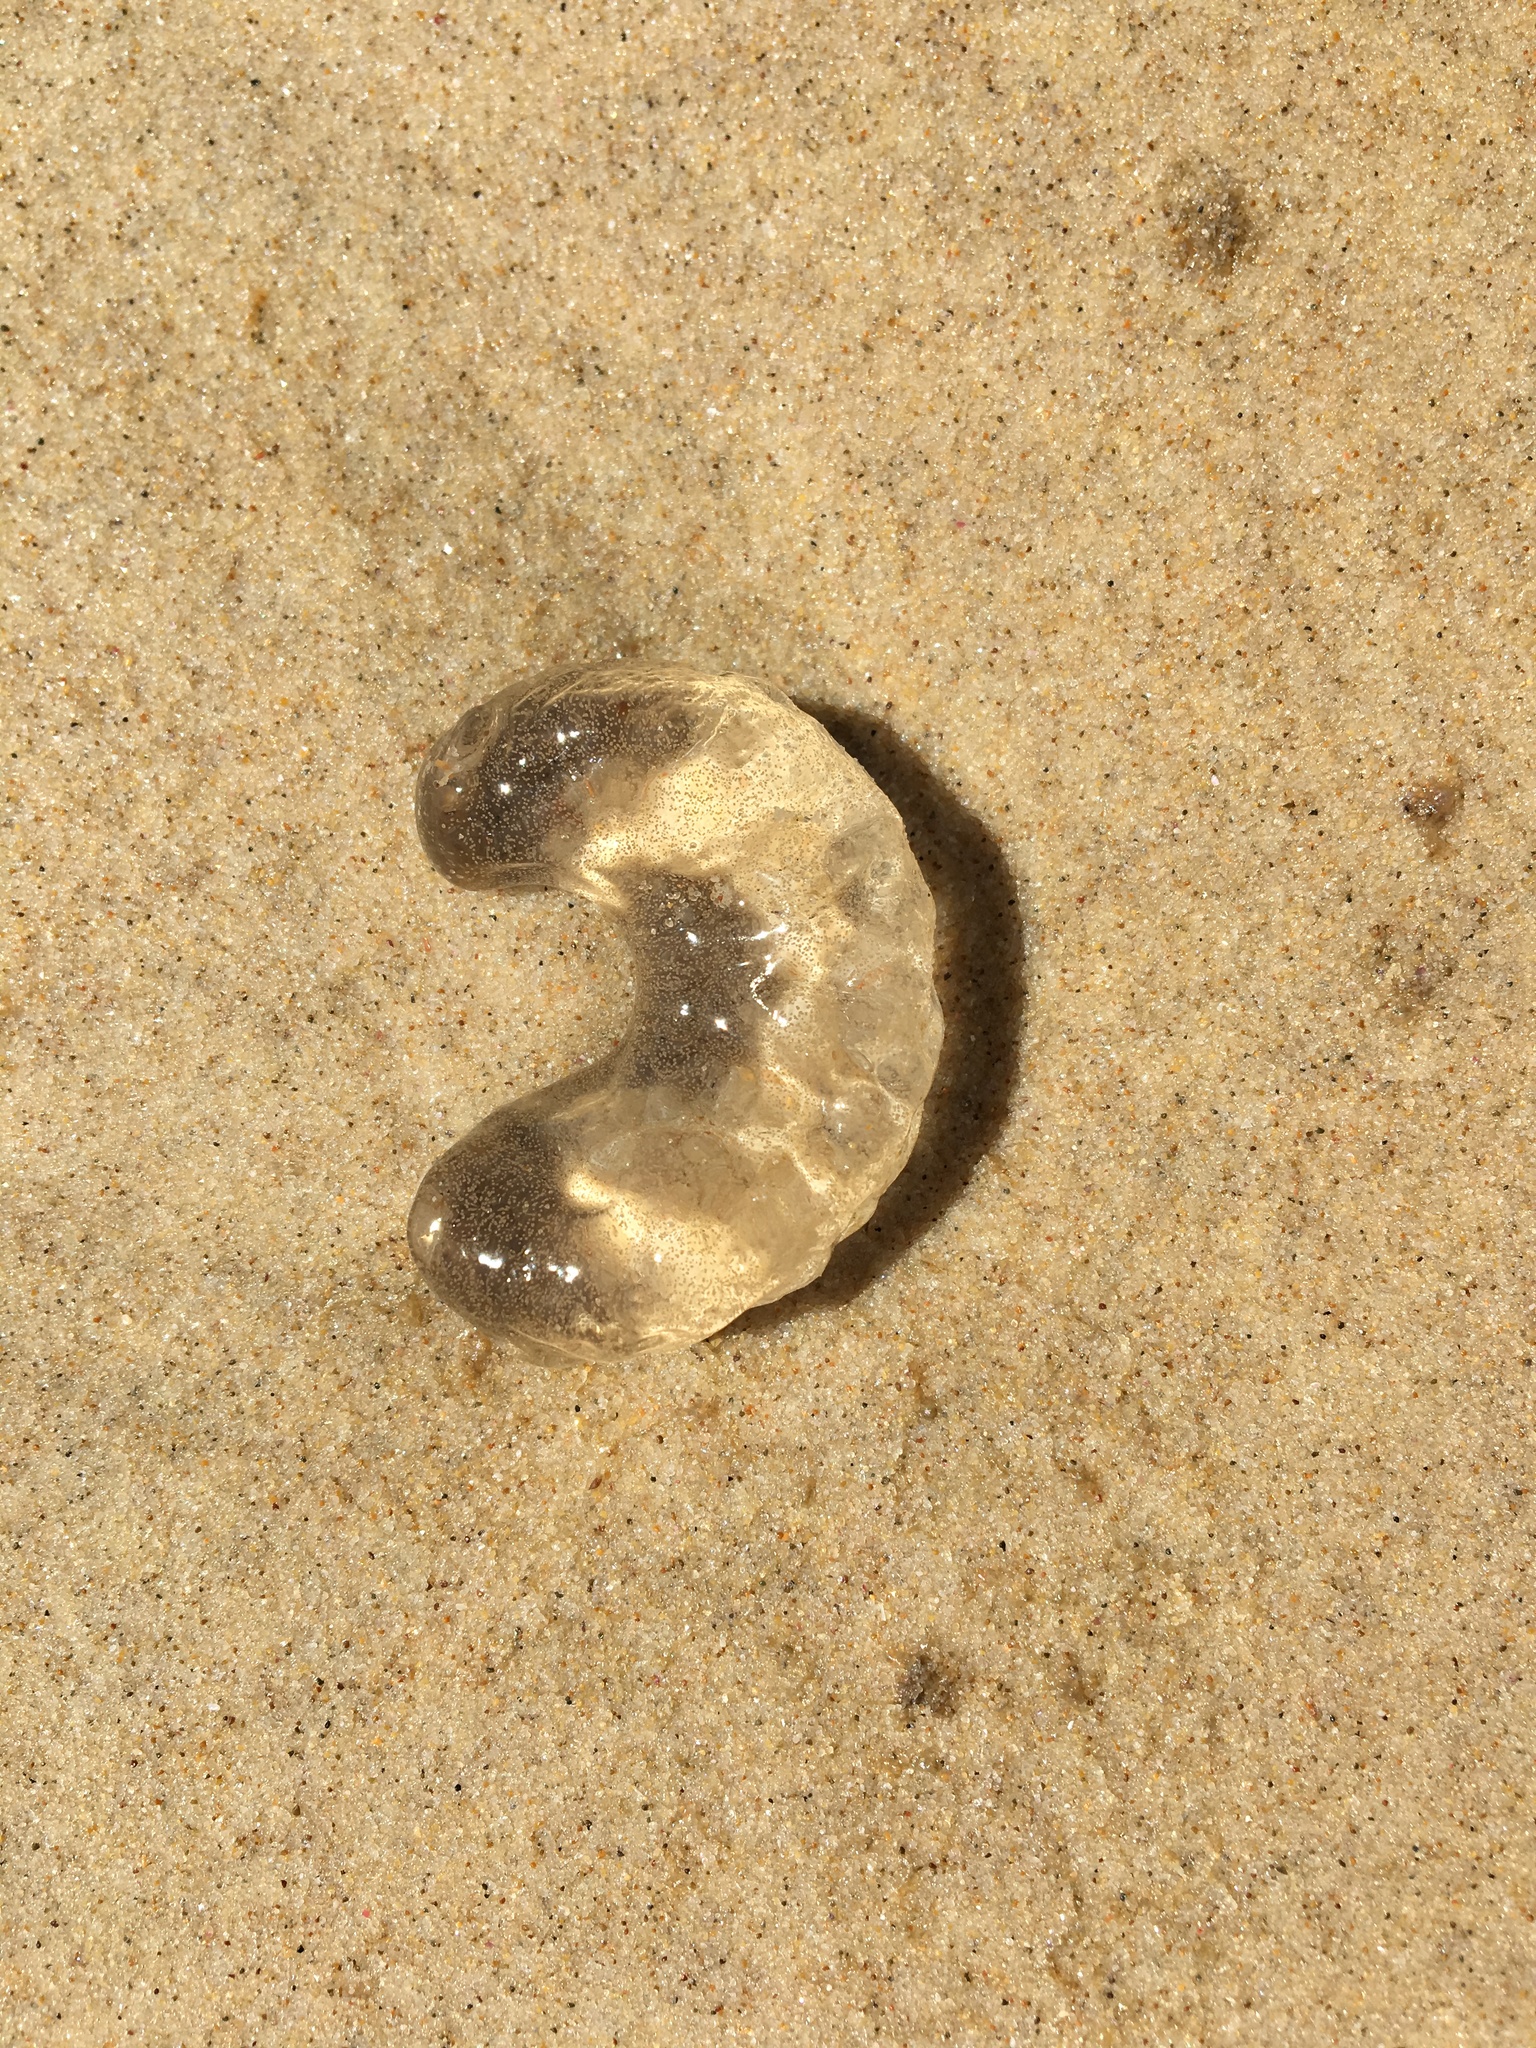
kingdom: Animalia
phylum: Mollusca
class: Gastropoda
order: Littorinimorpha
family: Naticidae
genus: Conuber
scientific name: Conuber conicum
